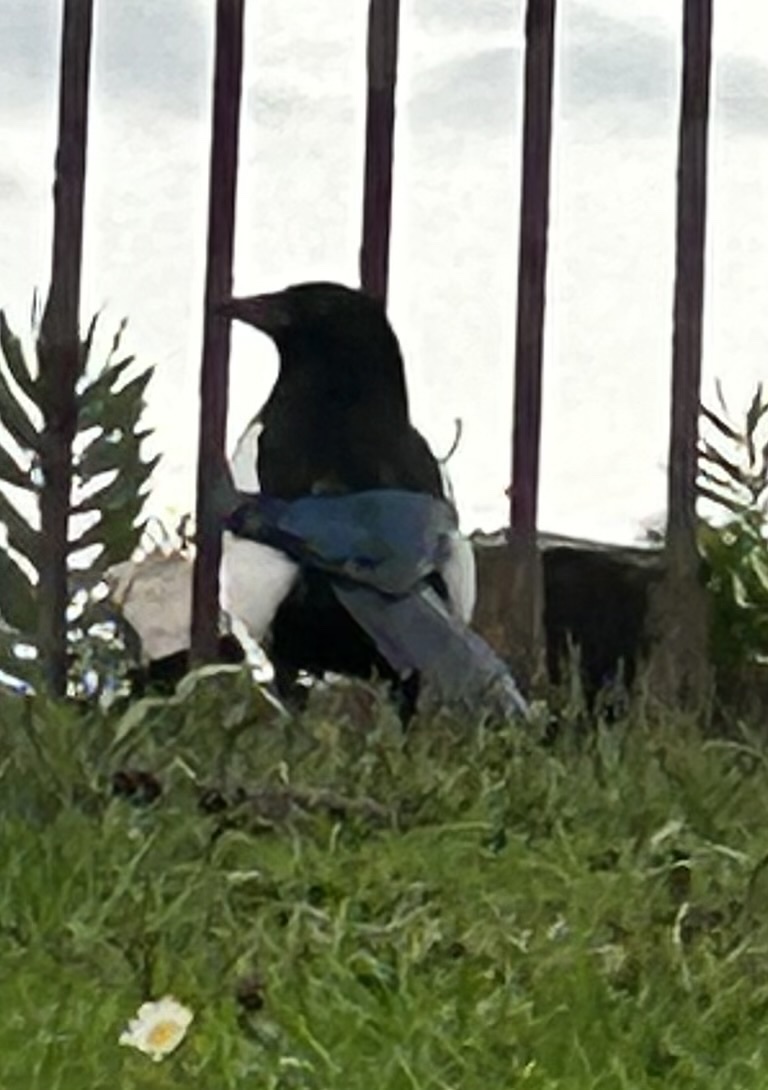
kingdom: Animalia
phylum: Chordata
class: Aves
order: Passeriformes
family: Corvidae
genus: Pica
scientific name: Pica pica
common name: Eurasian magpie
